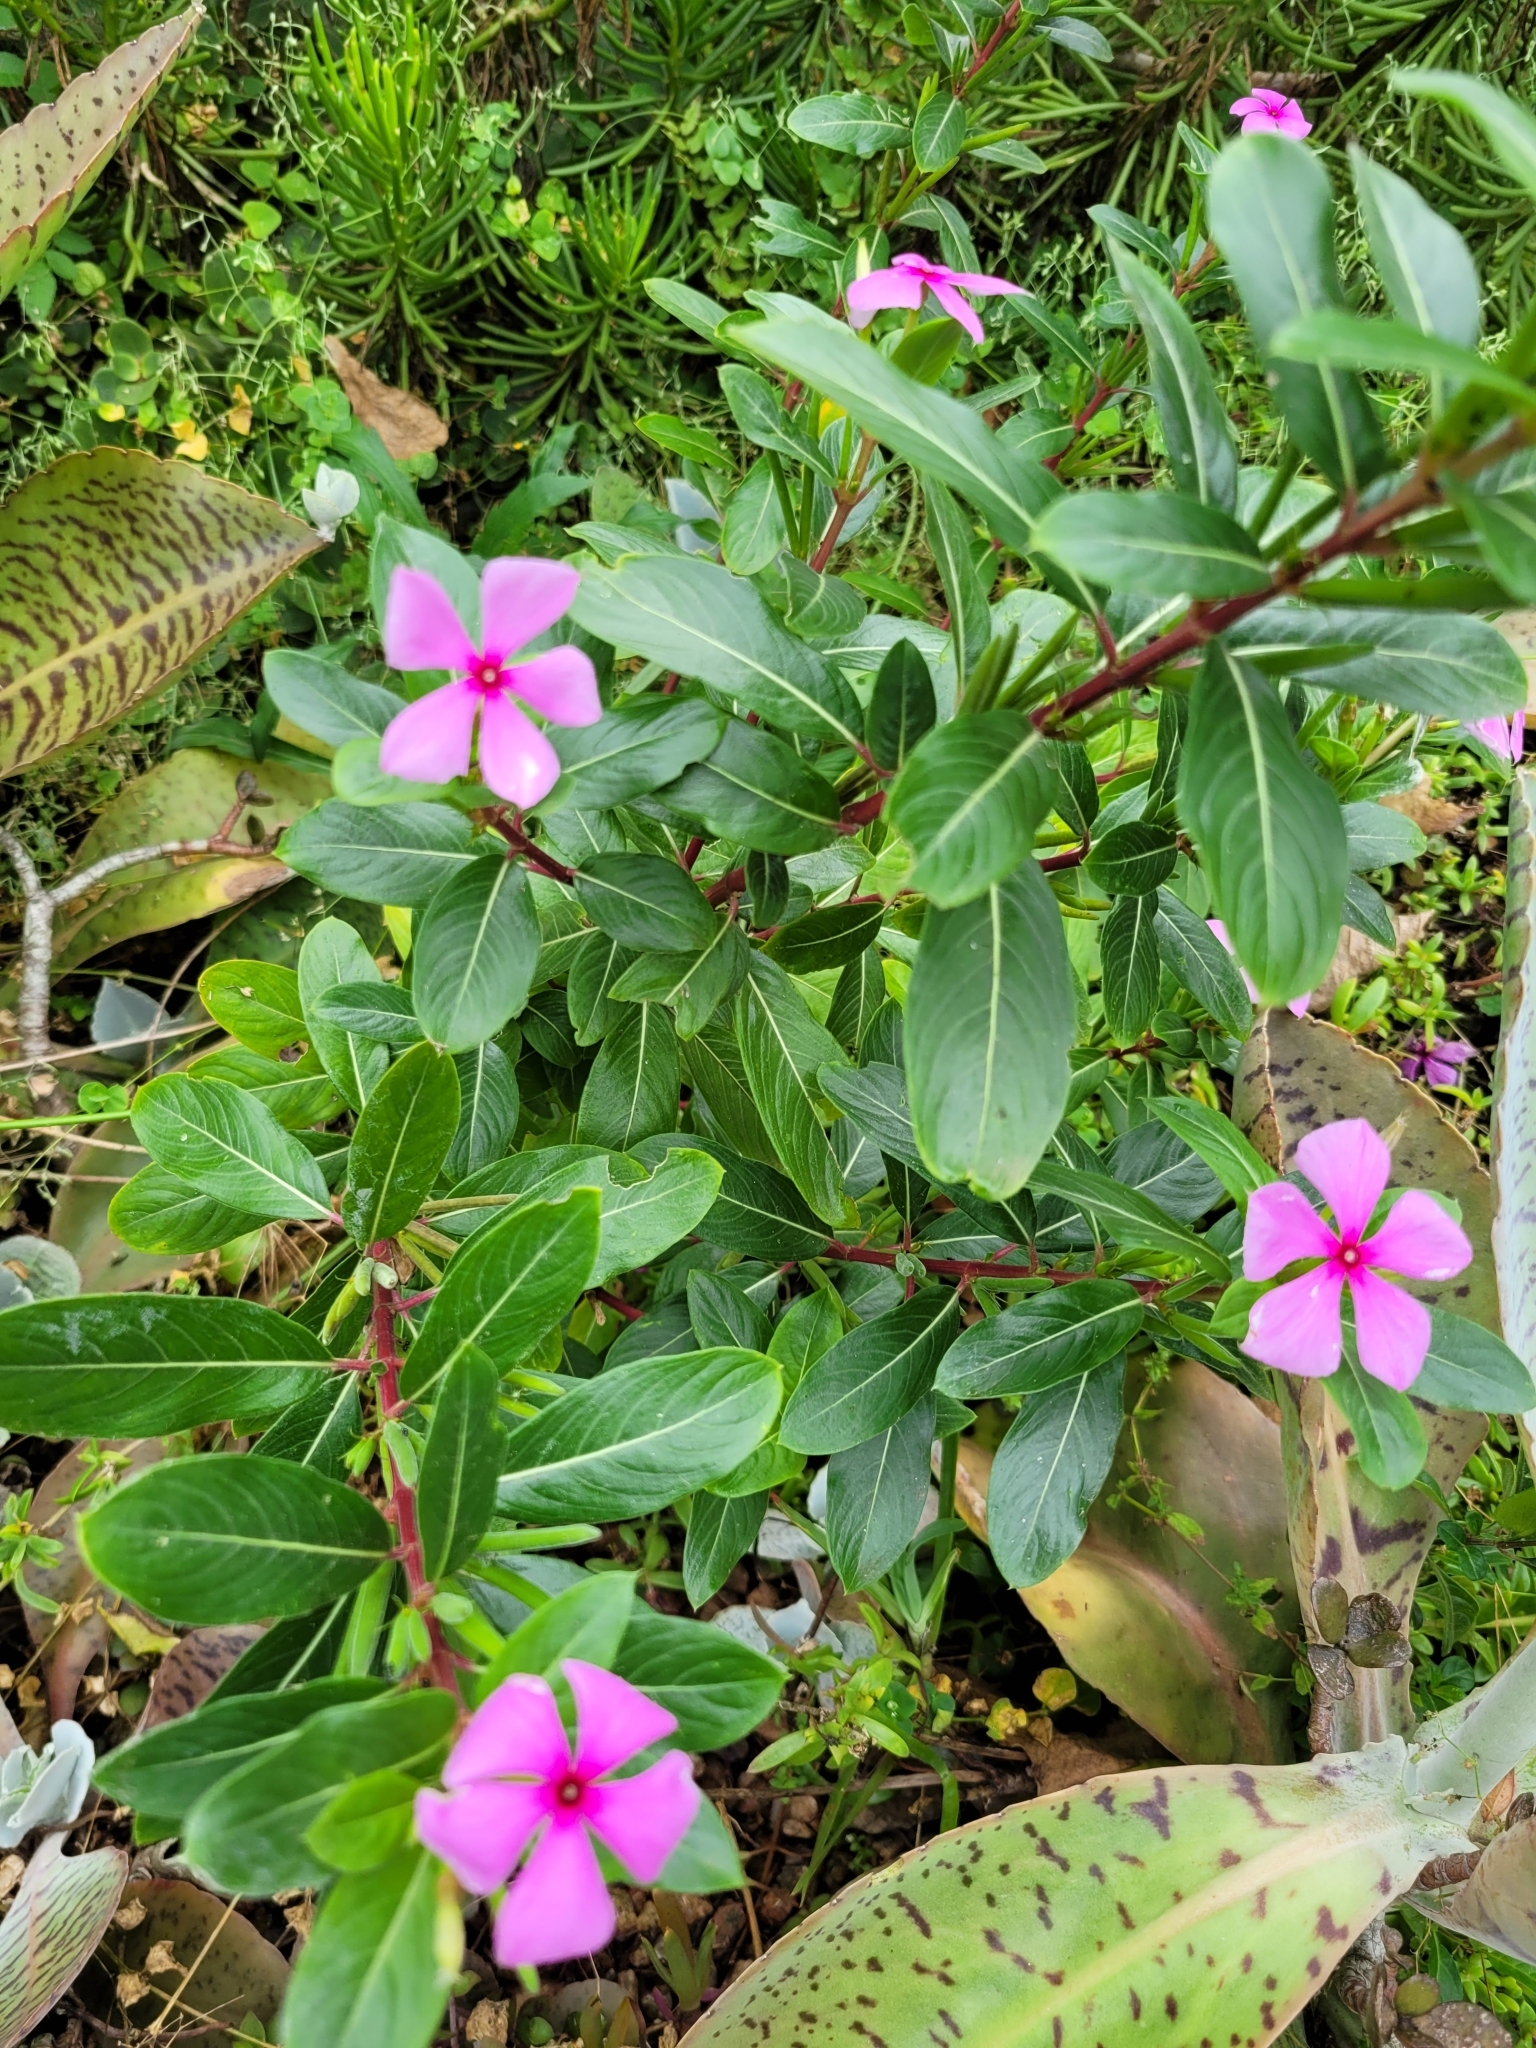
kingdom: Plantae
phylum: Tracheophyta
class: Magnoliopsida
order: Gentianales
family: Apocynaceae
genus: Catharanthus
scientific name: Catharanthus roseus
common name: Madagascar periwinkle
